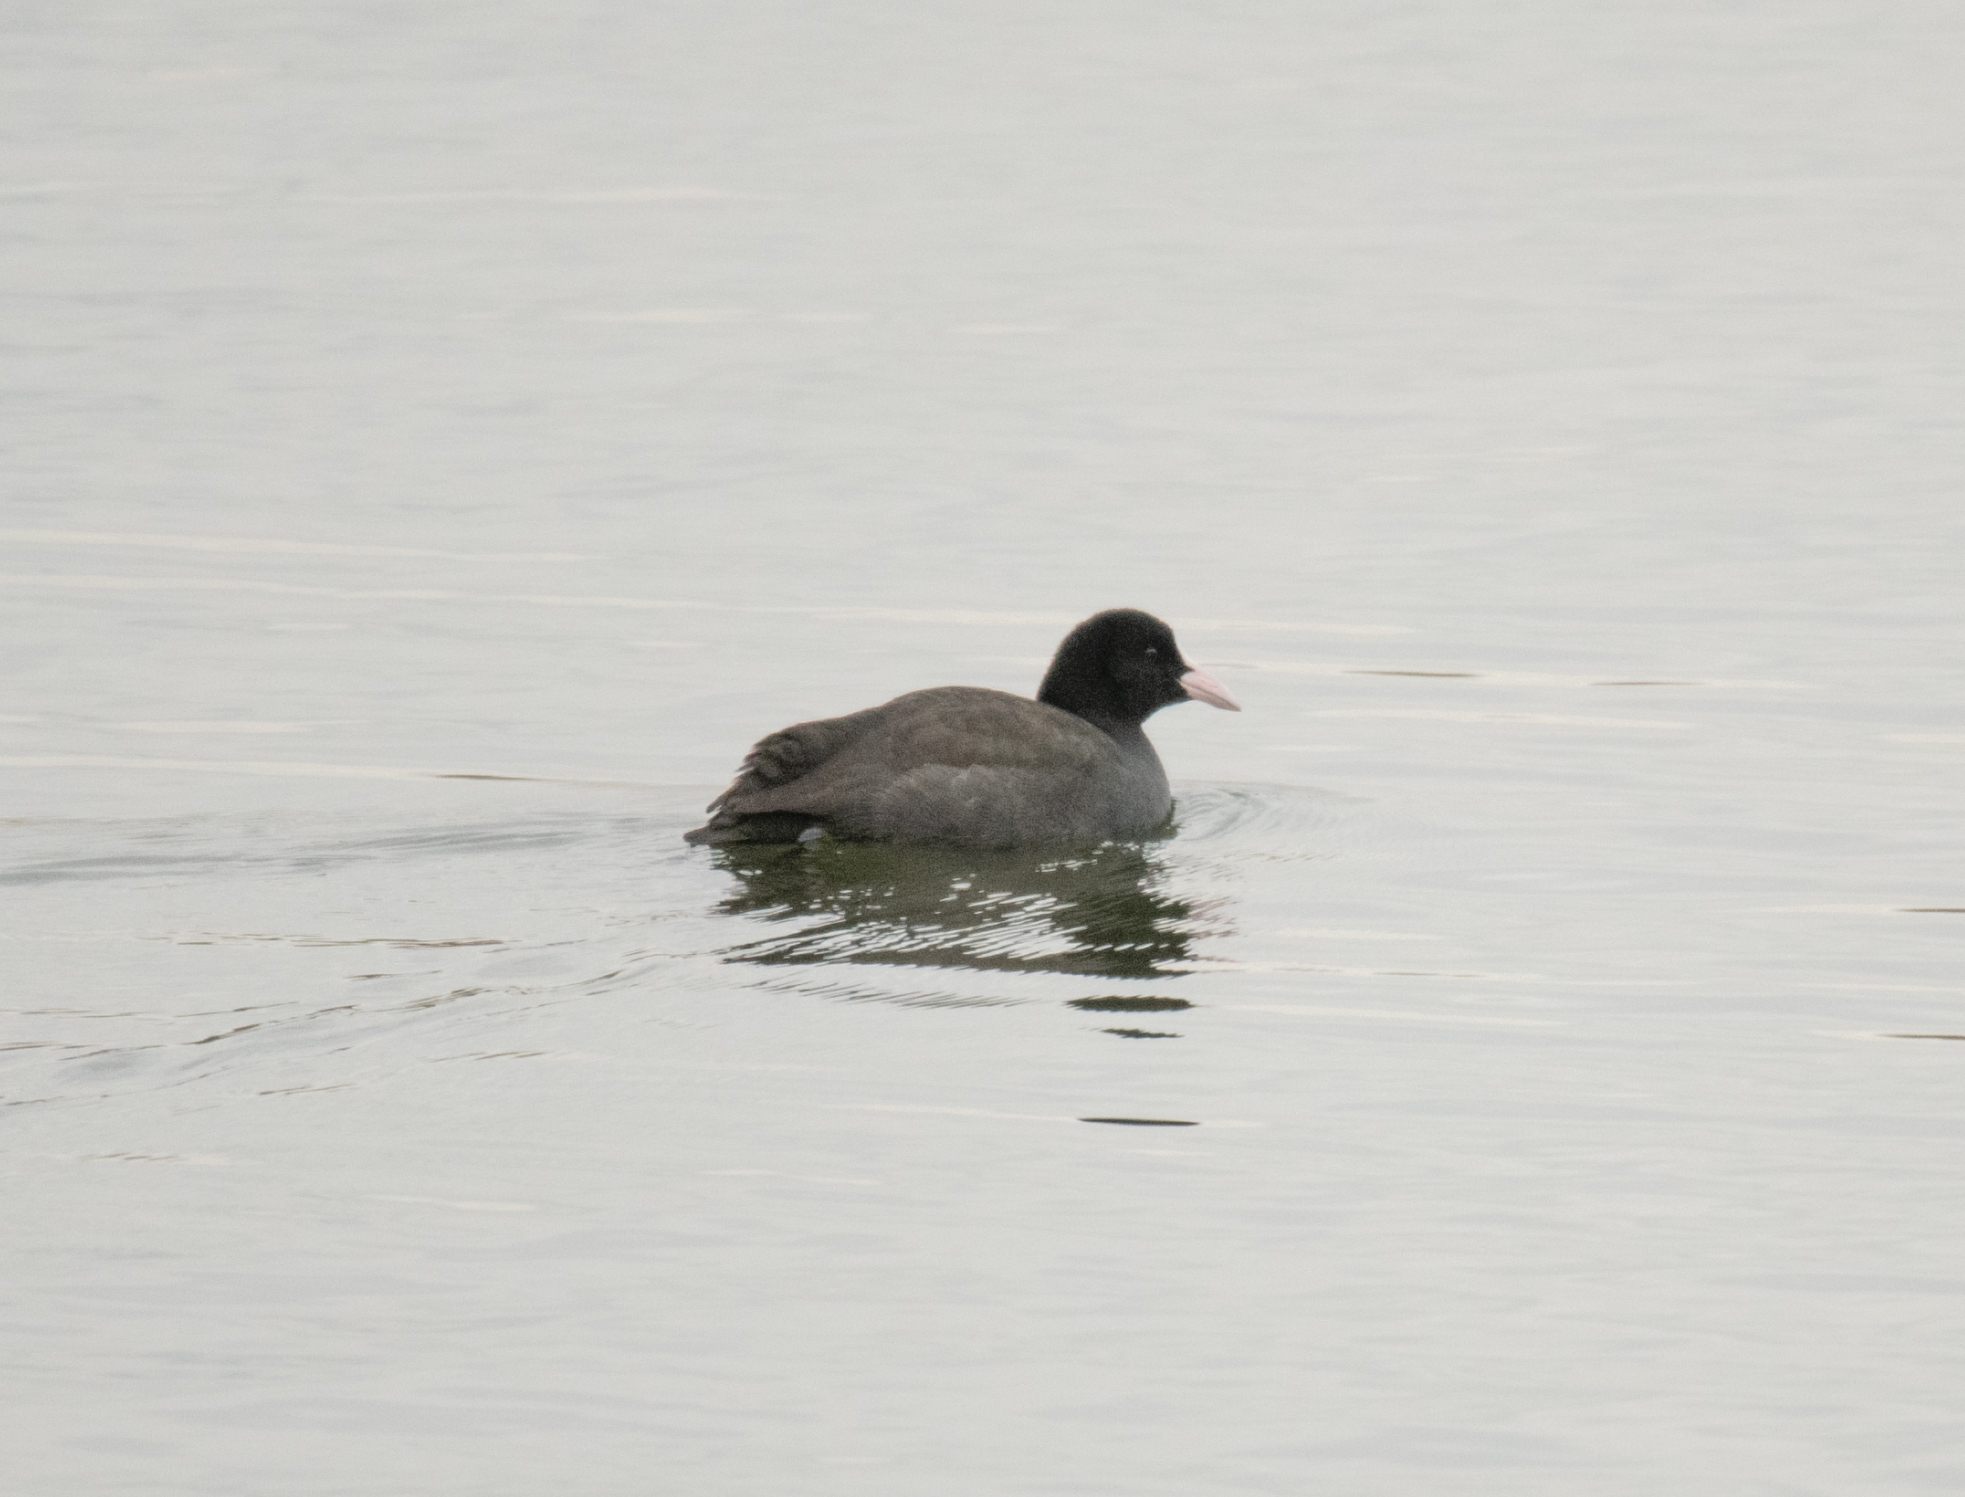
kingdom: Animalia
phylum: Chordata
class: Aves
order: Gruiformes
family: Rallidae
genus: Fulica
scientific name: Fulica atra
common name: Eurasian coot
